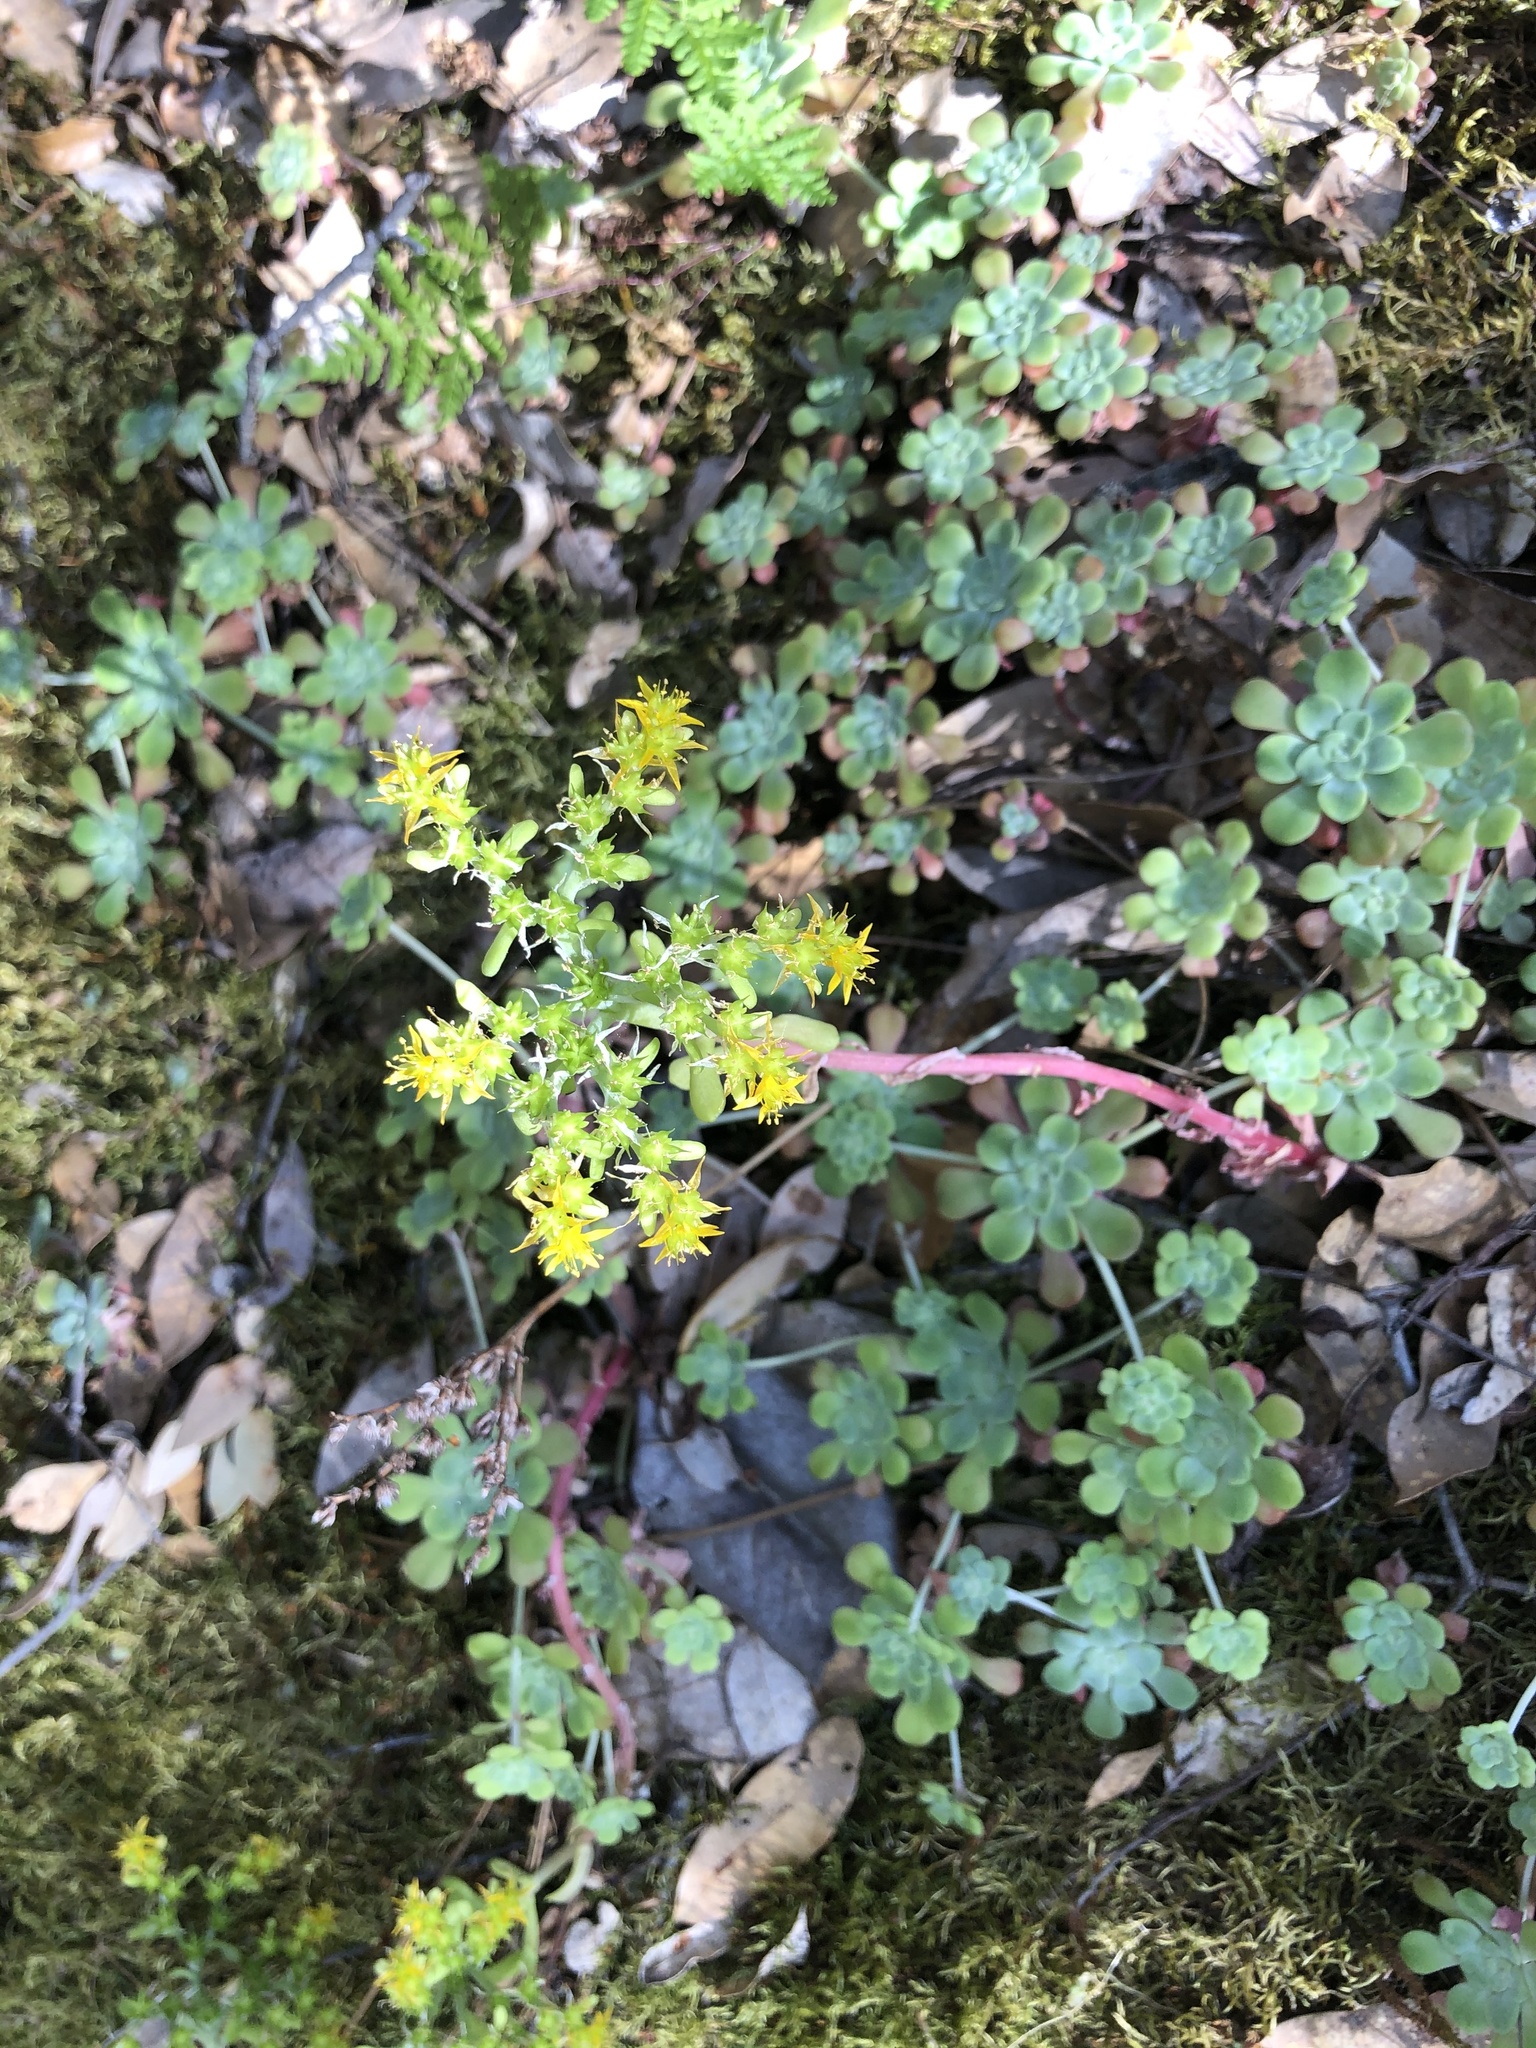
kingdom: Plantae
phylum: Tracheophyta
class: Magnoliopsida
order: Saxifragales
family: Crassulaceae
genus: Sedum
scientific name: Sedum spathulifolium
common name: Colorado stonecrop
